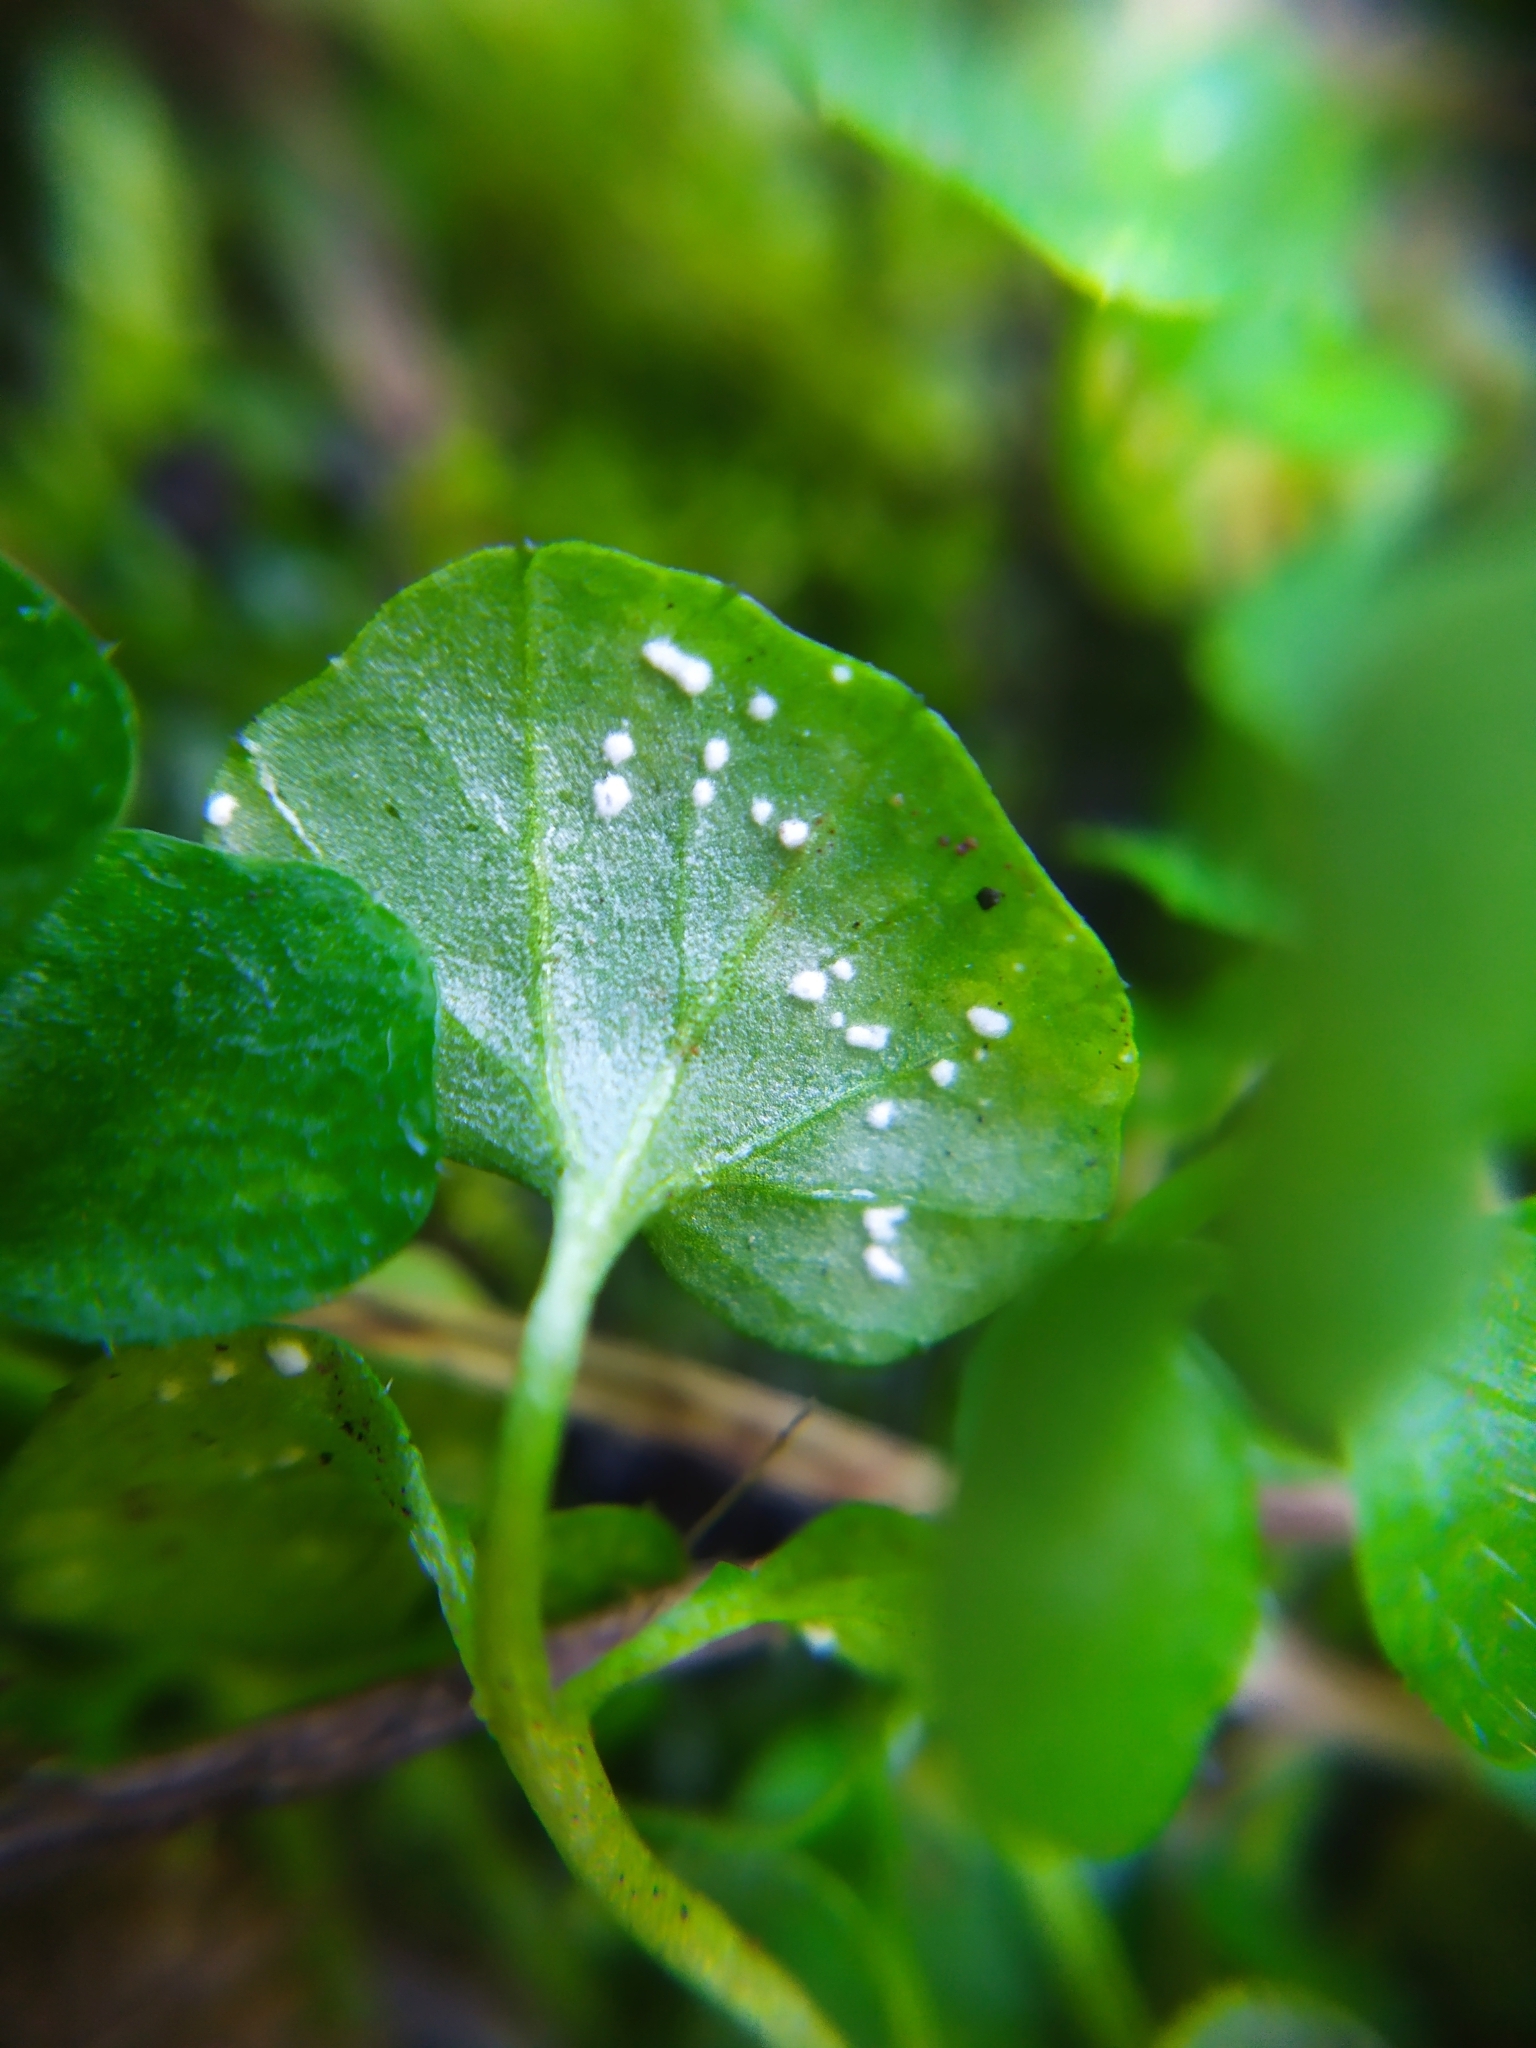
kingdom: Chromista
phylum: Oomycota
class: Peronosporea
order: Albuginales
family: Albuginaceae
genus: Albugo
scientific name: Albugo hohenheimia
